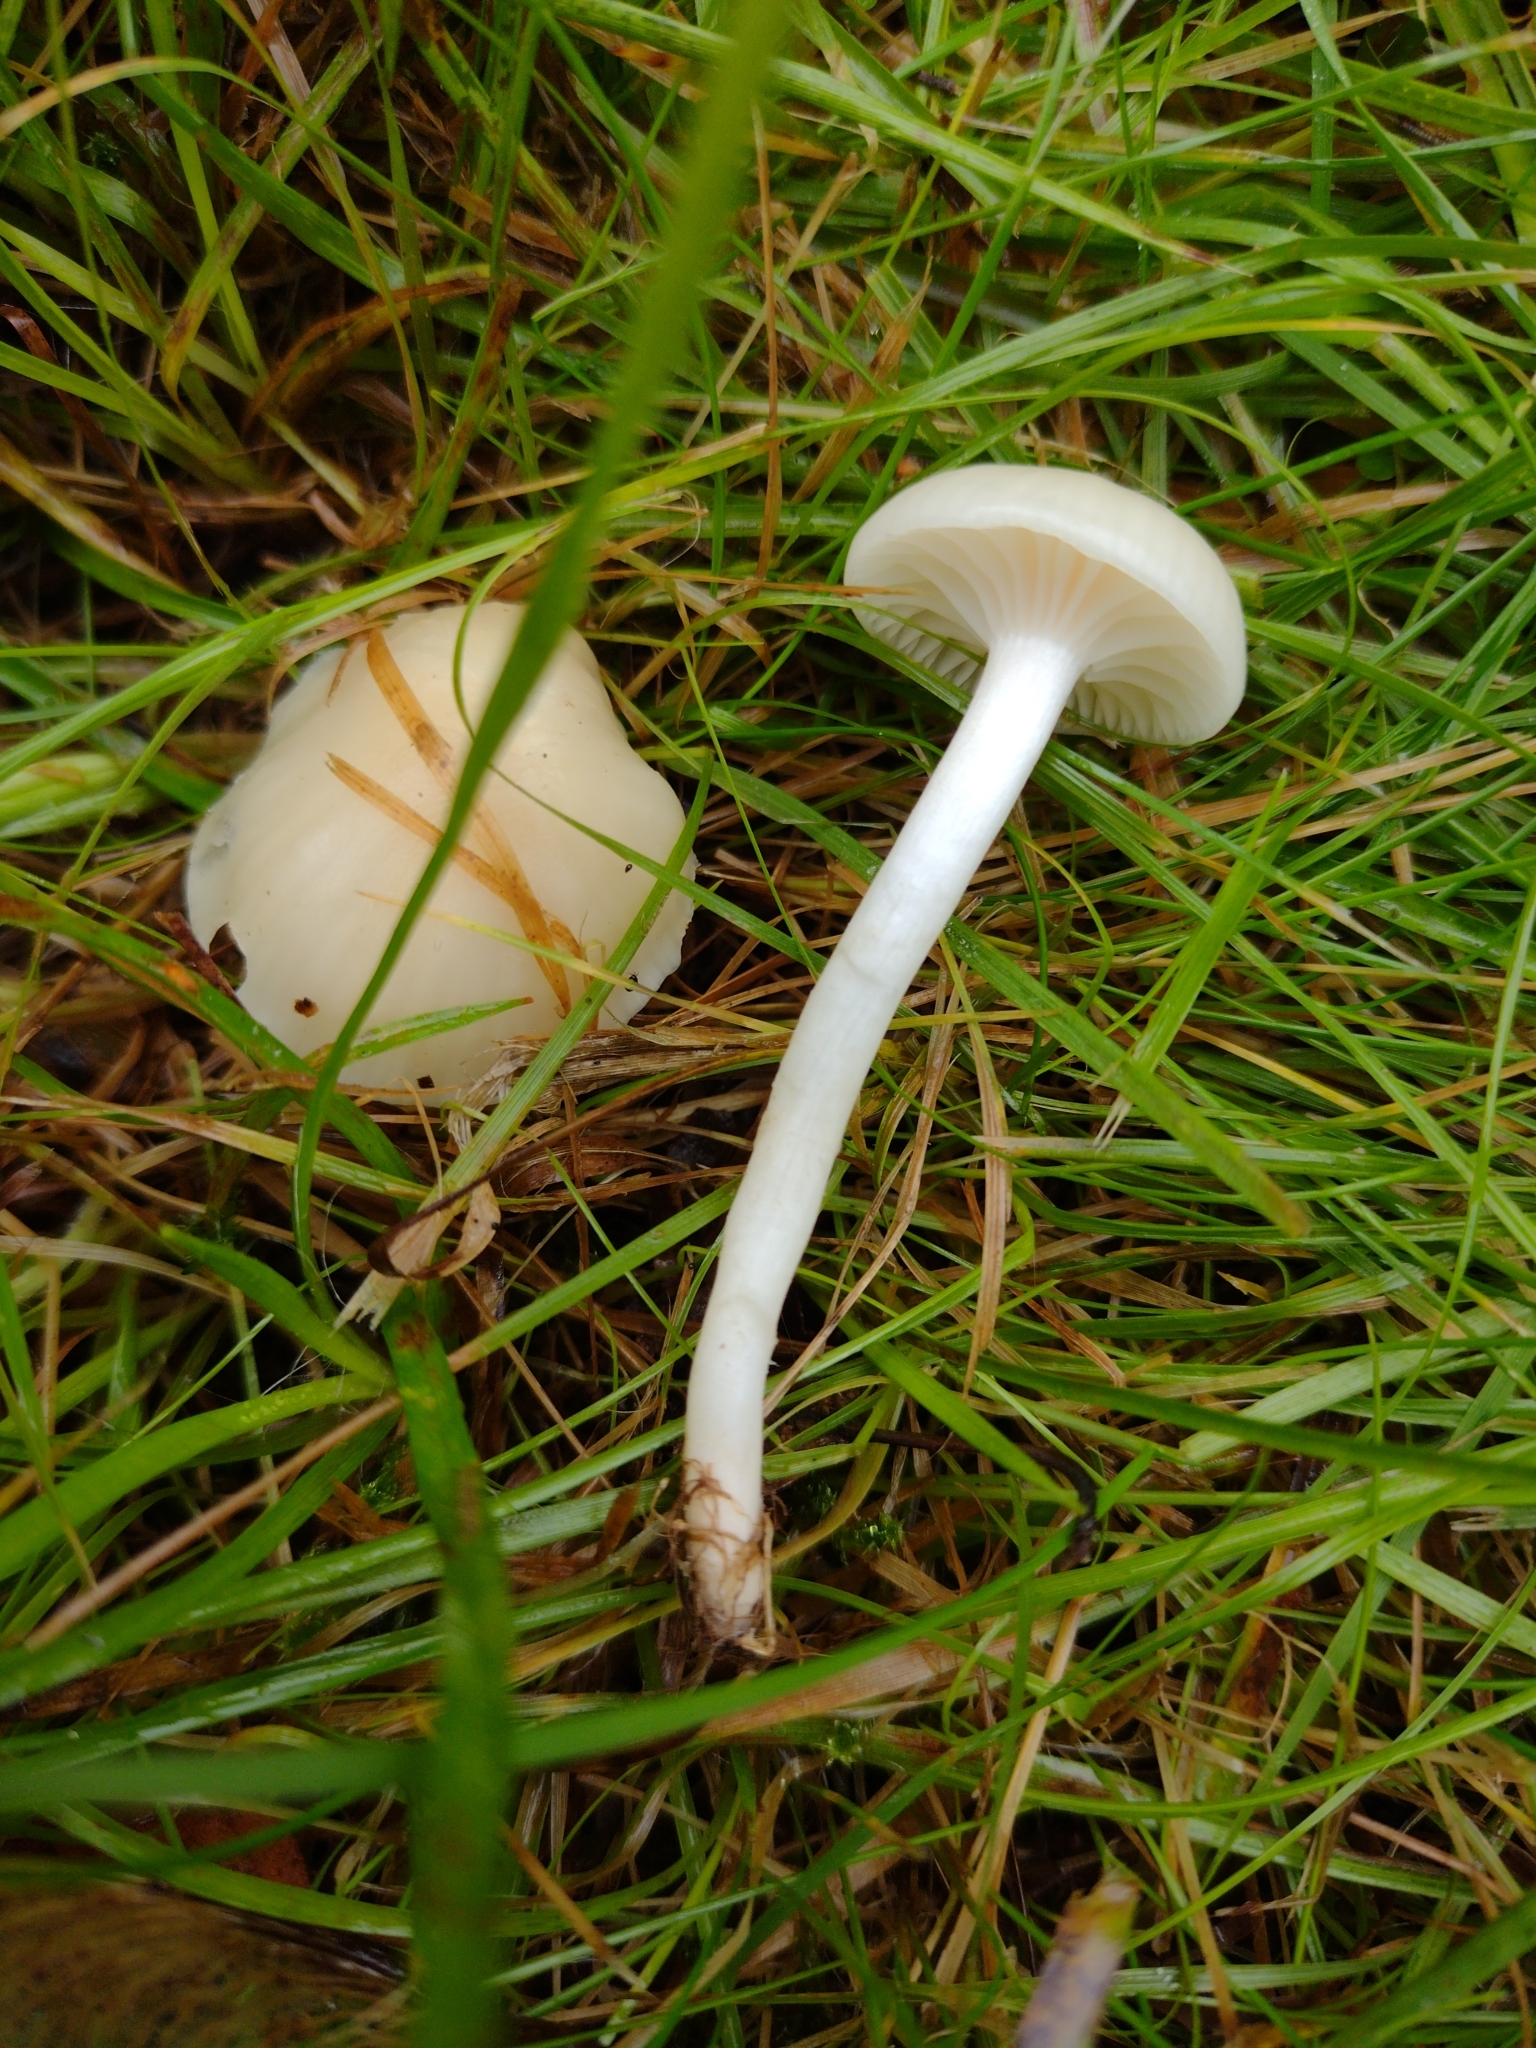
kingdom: Fungi
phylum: Basidiomycota
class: Agaricomycetes
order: Agaricales
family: Hygrophoraceae
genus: Cuphophyllus
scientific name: Cuphophyllus virgineus
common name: Snowy waxcap
